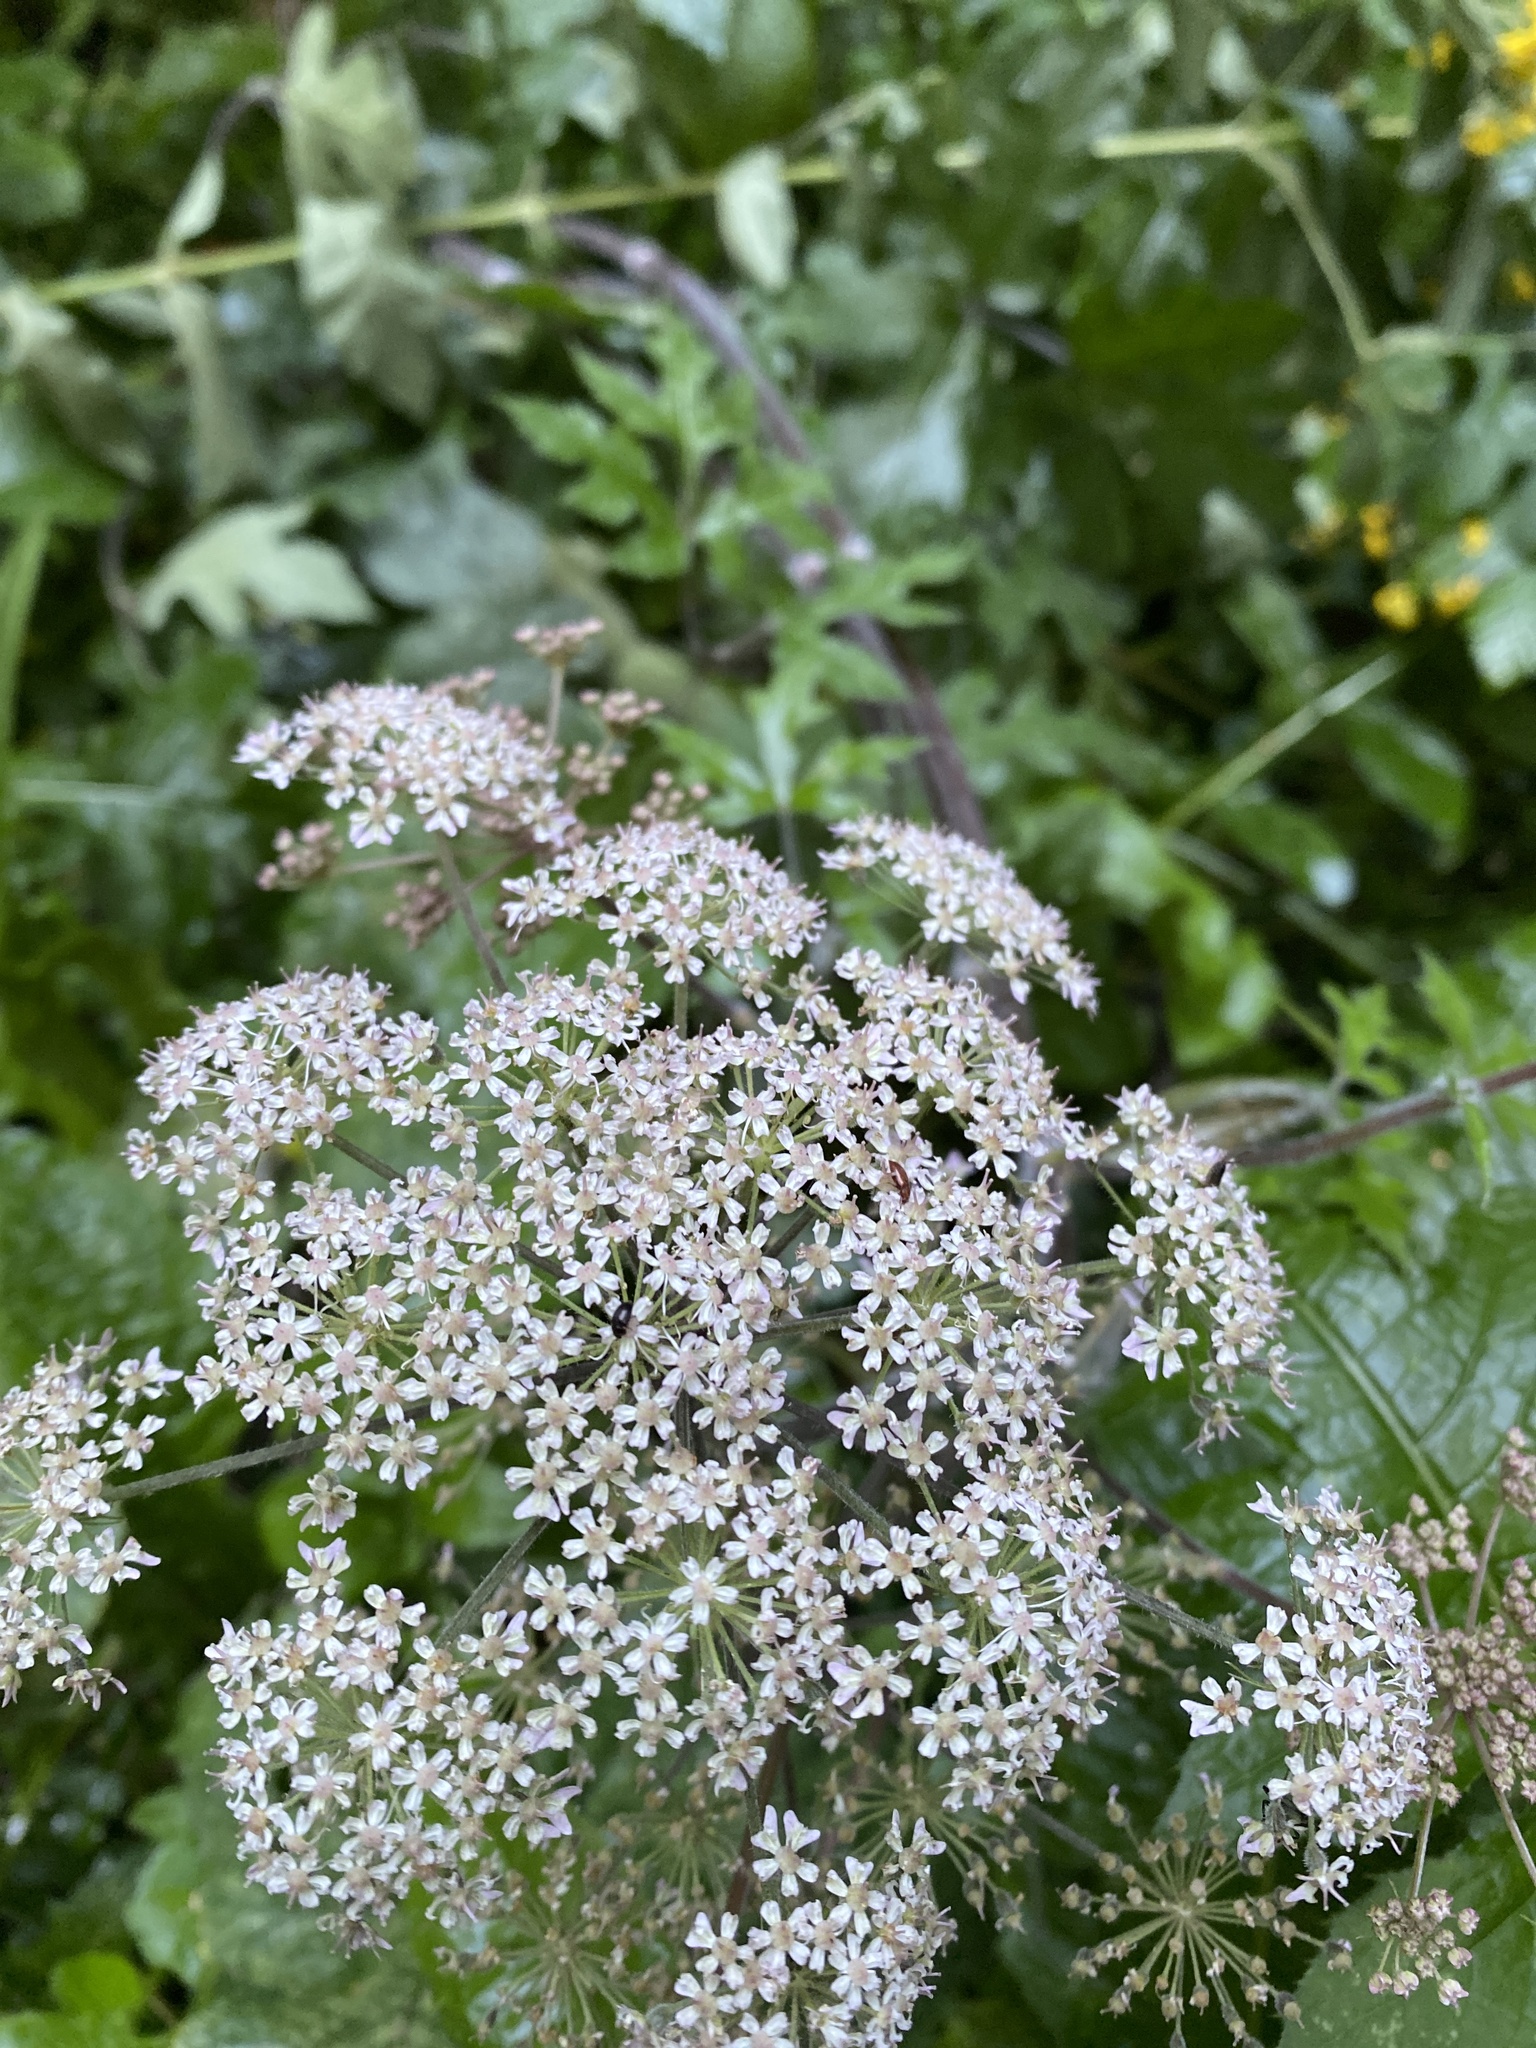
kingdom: Plantae
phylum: Tracheophyta
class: Magnoliopsida
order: Apiales
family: Apiaceae
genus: Heracleum
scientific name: Heracleum sphondylium
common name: Hogweed
